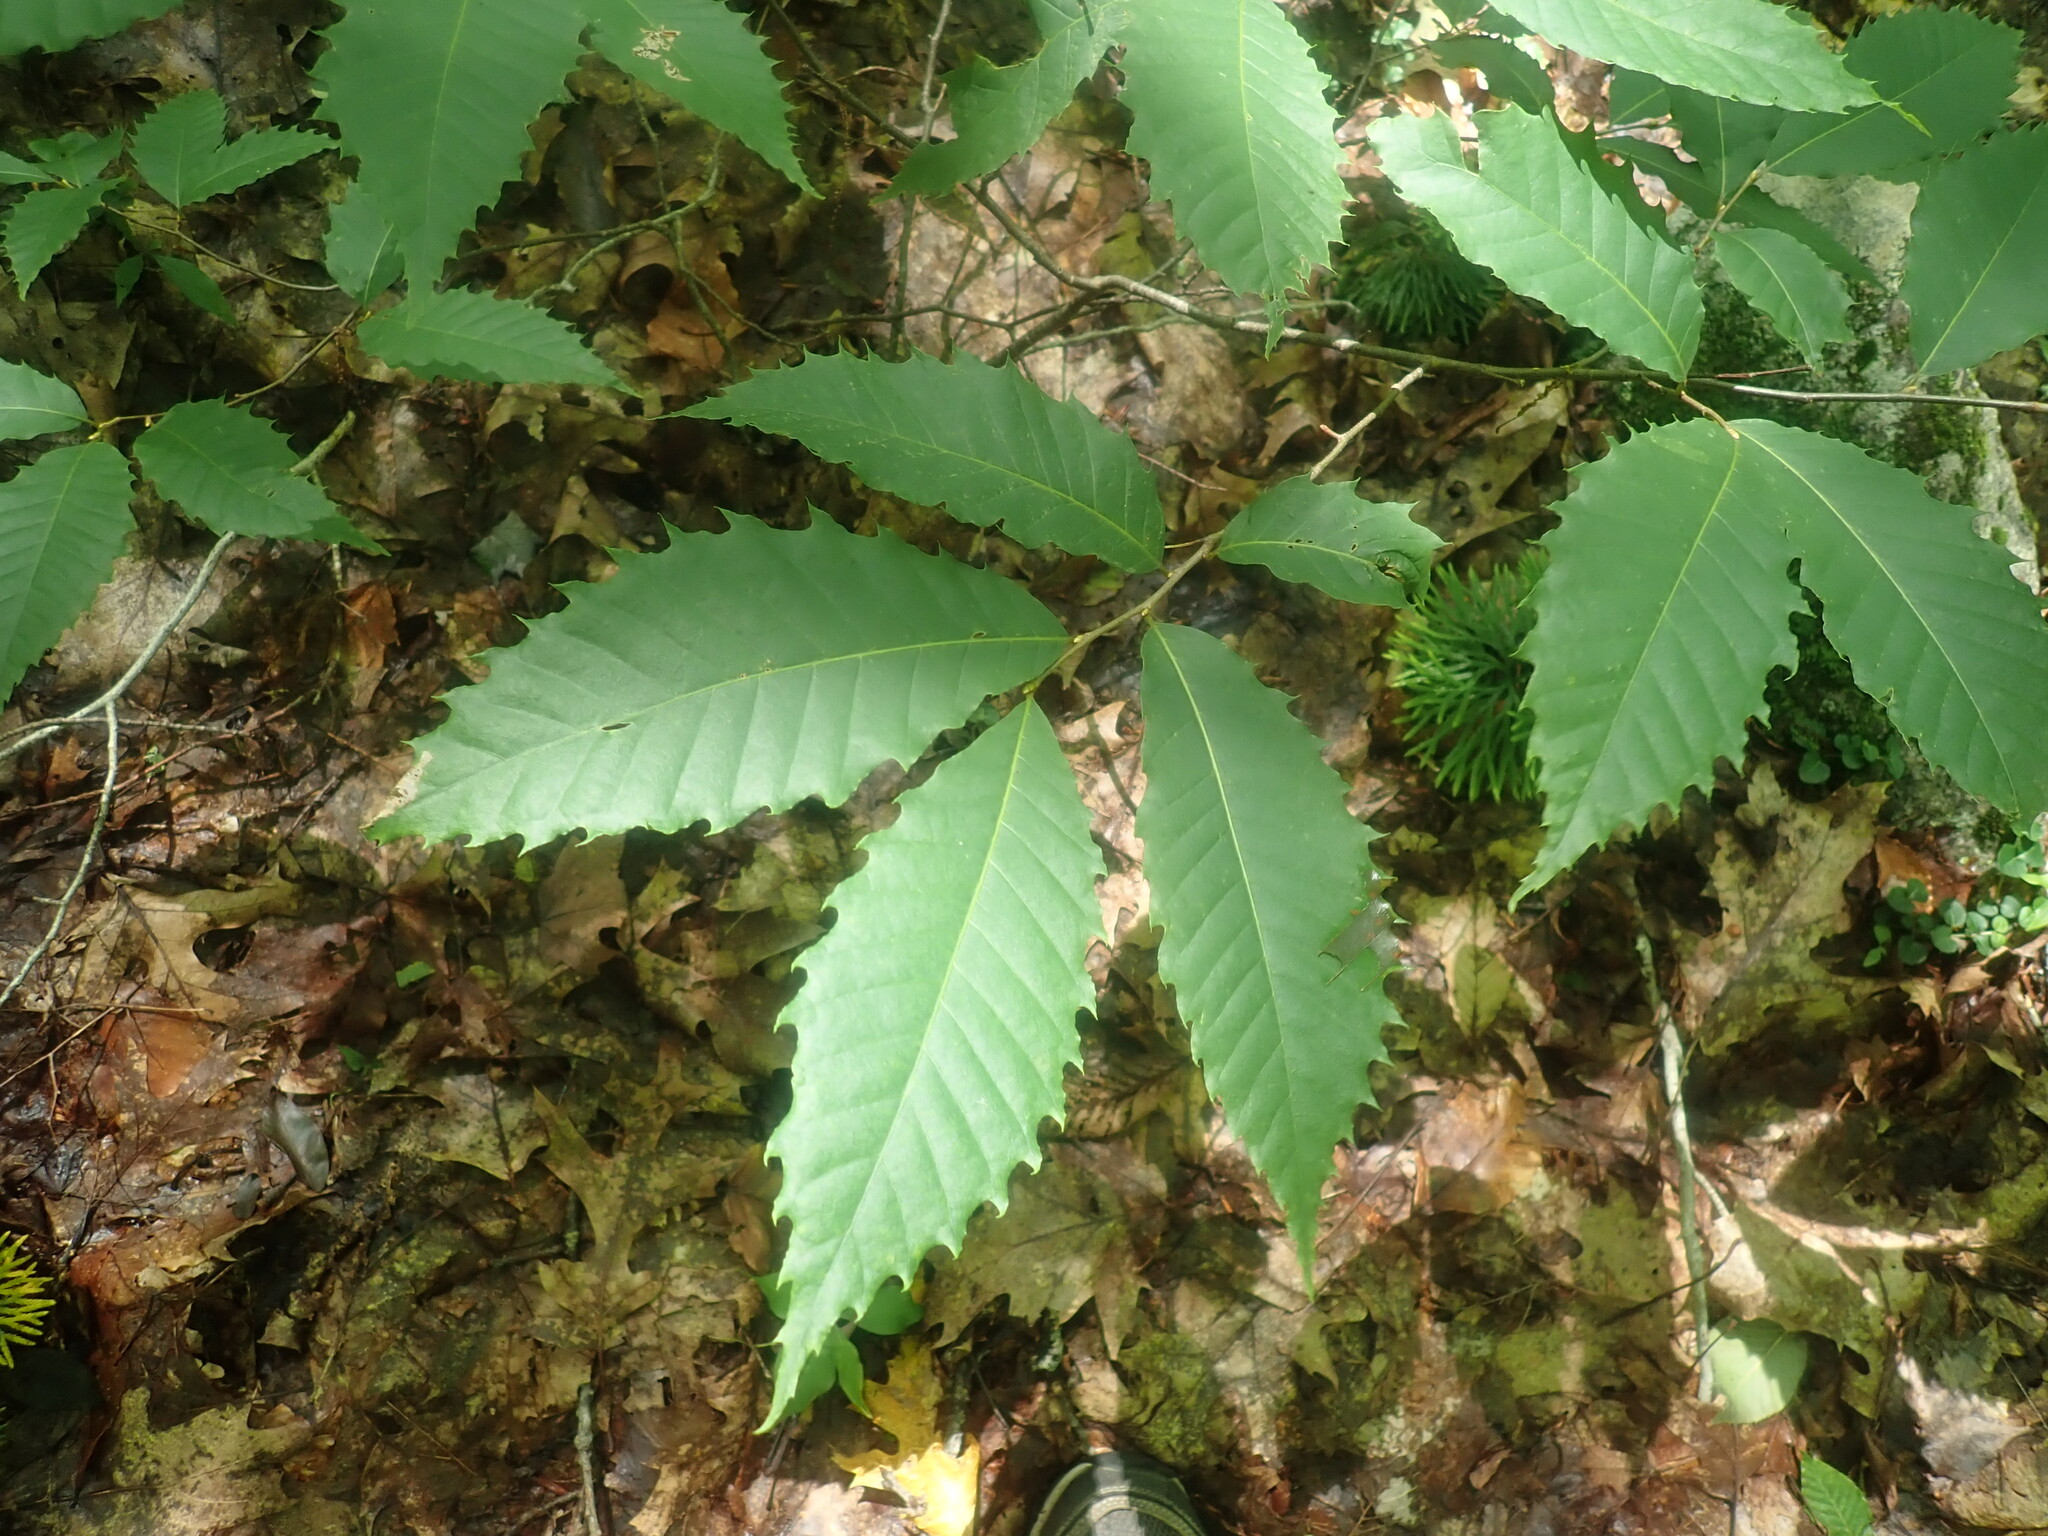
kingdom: Plantae
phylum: Tracheophyta
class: Magnoliopsida
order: Fagales
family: Fagaceae
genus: Castanea
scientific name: Castanea dentata
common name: American chestnut
